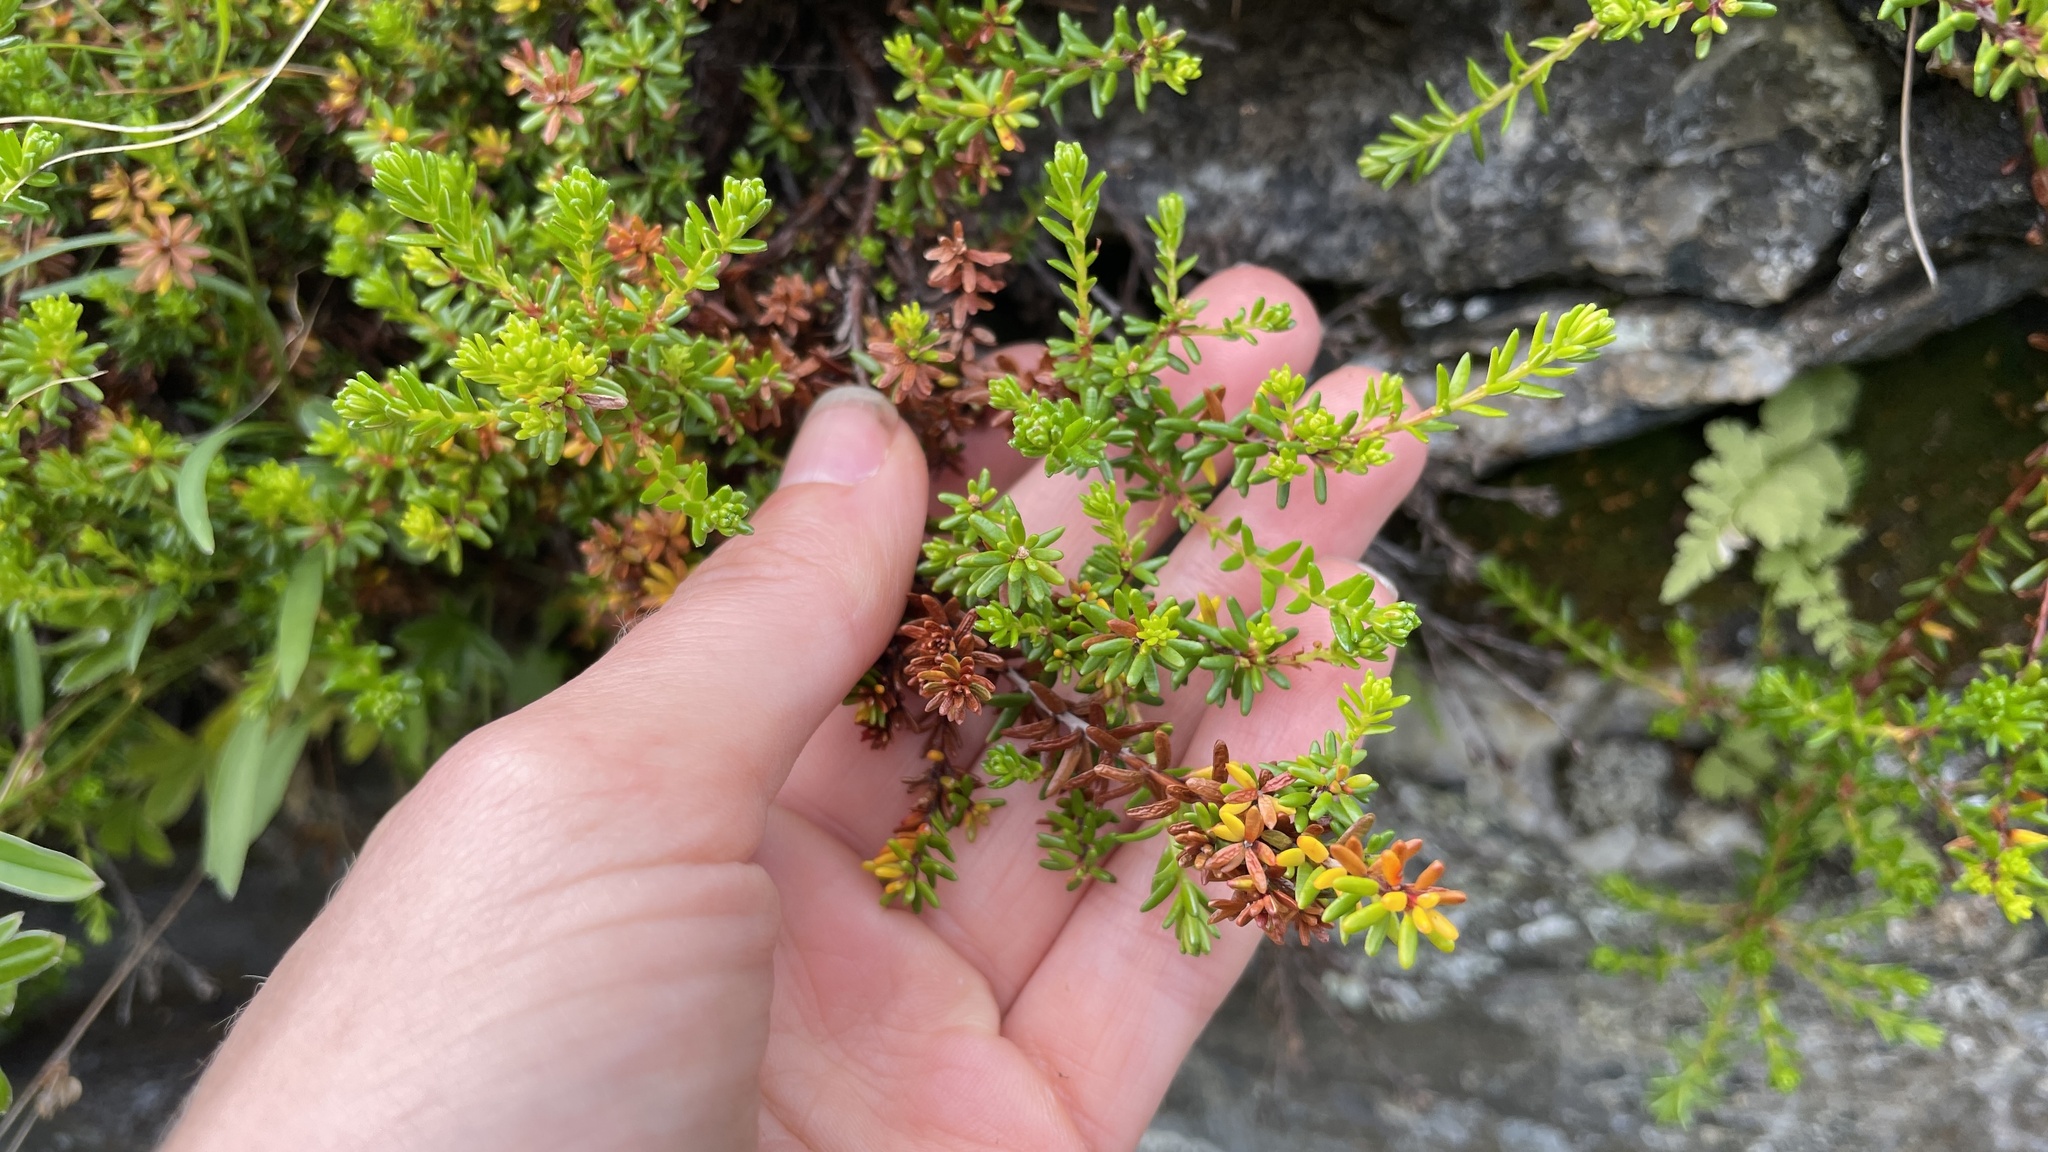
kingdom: Plantae
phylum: Tracheophyta
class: Magnoliopsida
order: Ericales
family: Ericaceae
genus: Empetrum
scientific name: Empetrum nigrum
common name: Black crowberry
